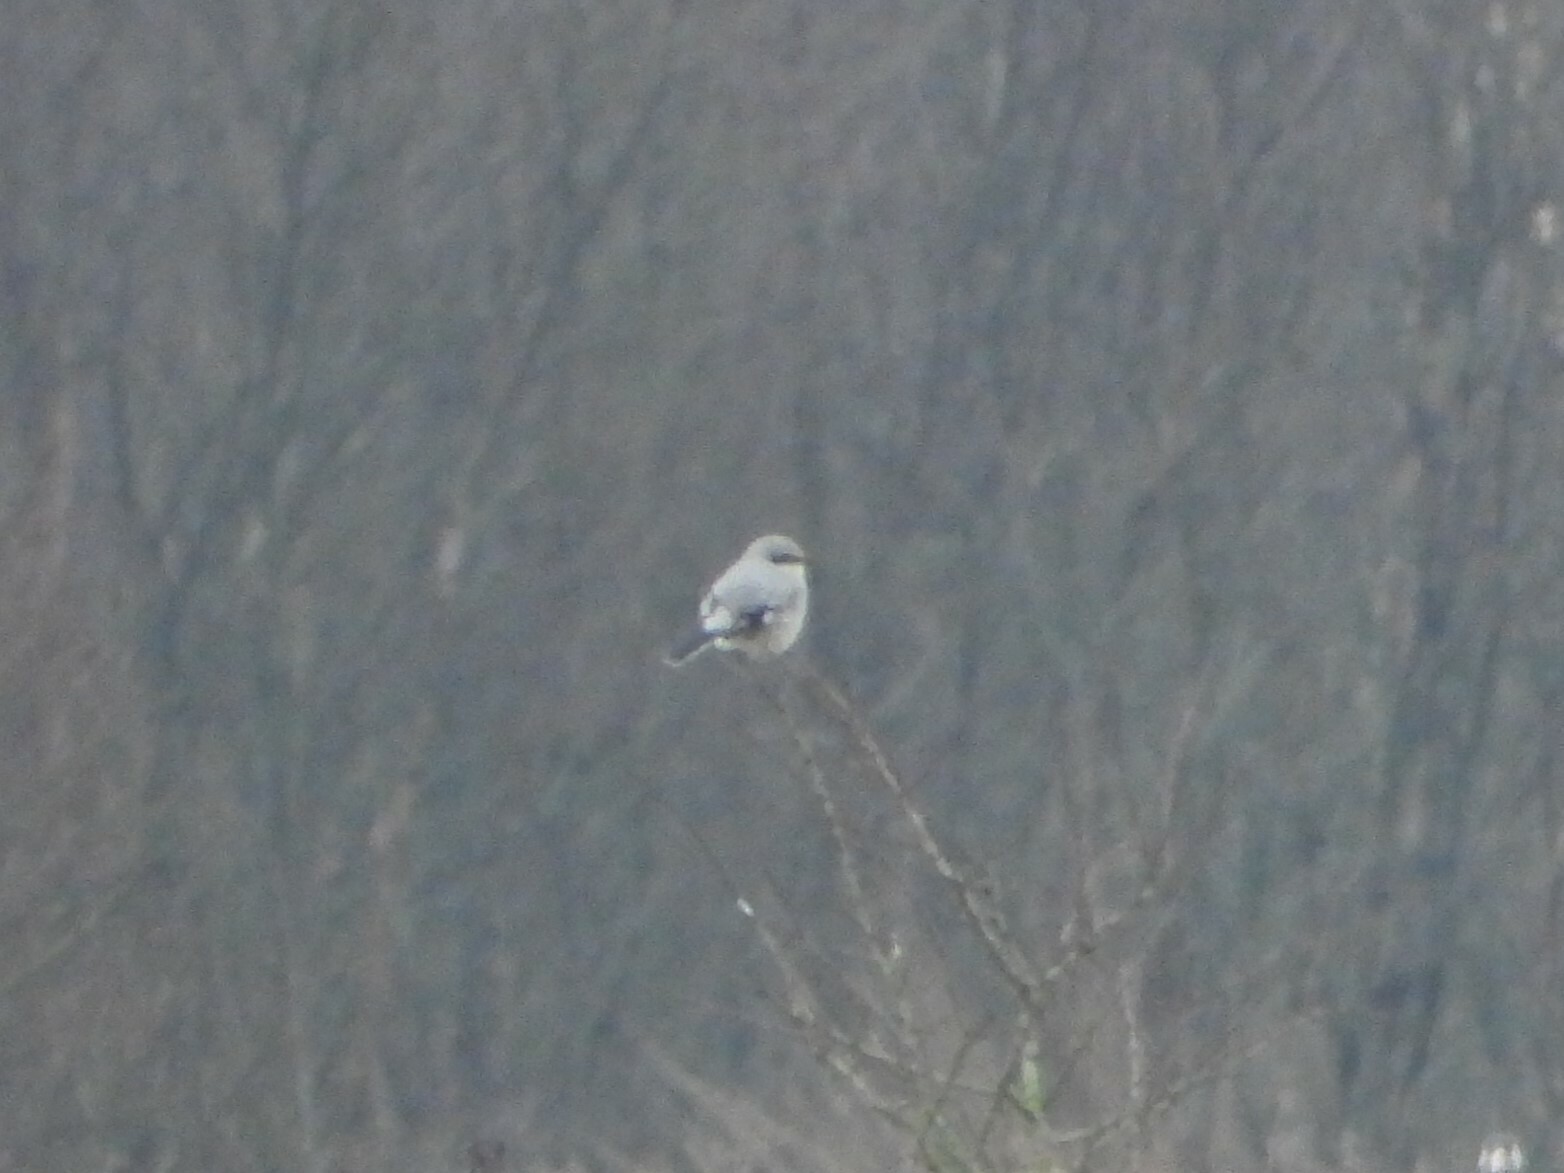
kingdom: Animalia
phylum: Chordata
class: Aves
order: Passeriformes
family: Laniidae
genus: Lanius
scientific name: Lanius excubitor
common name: Great grey shrike
